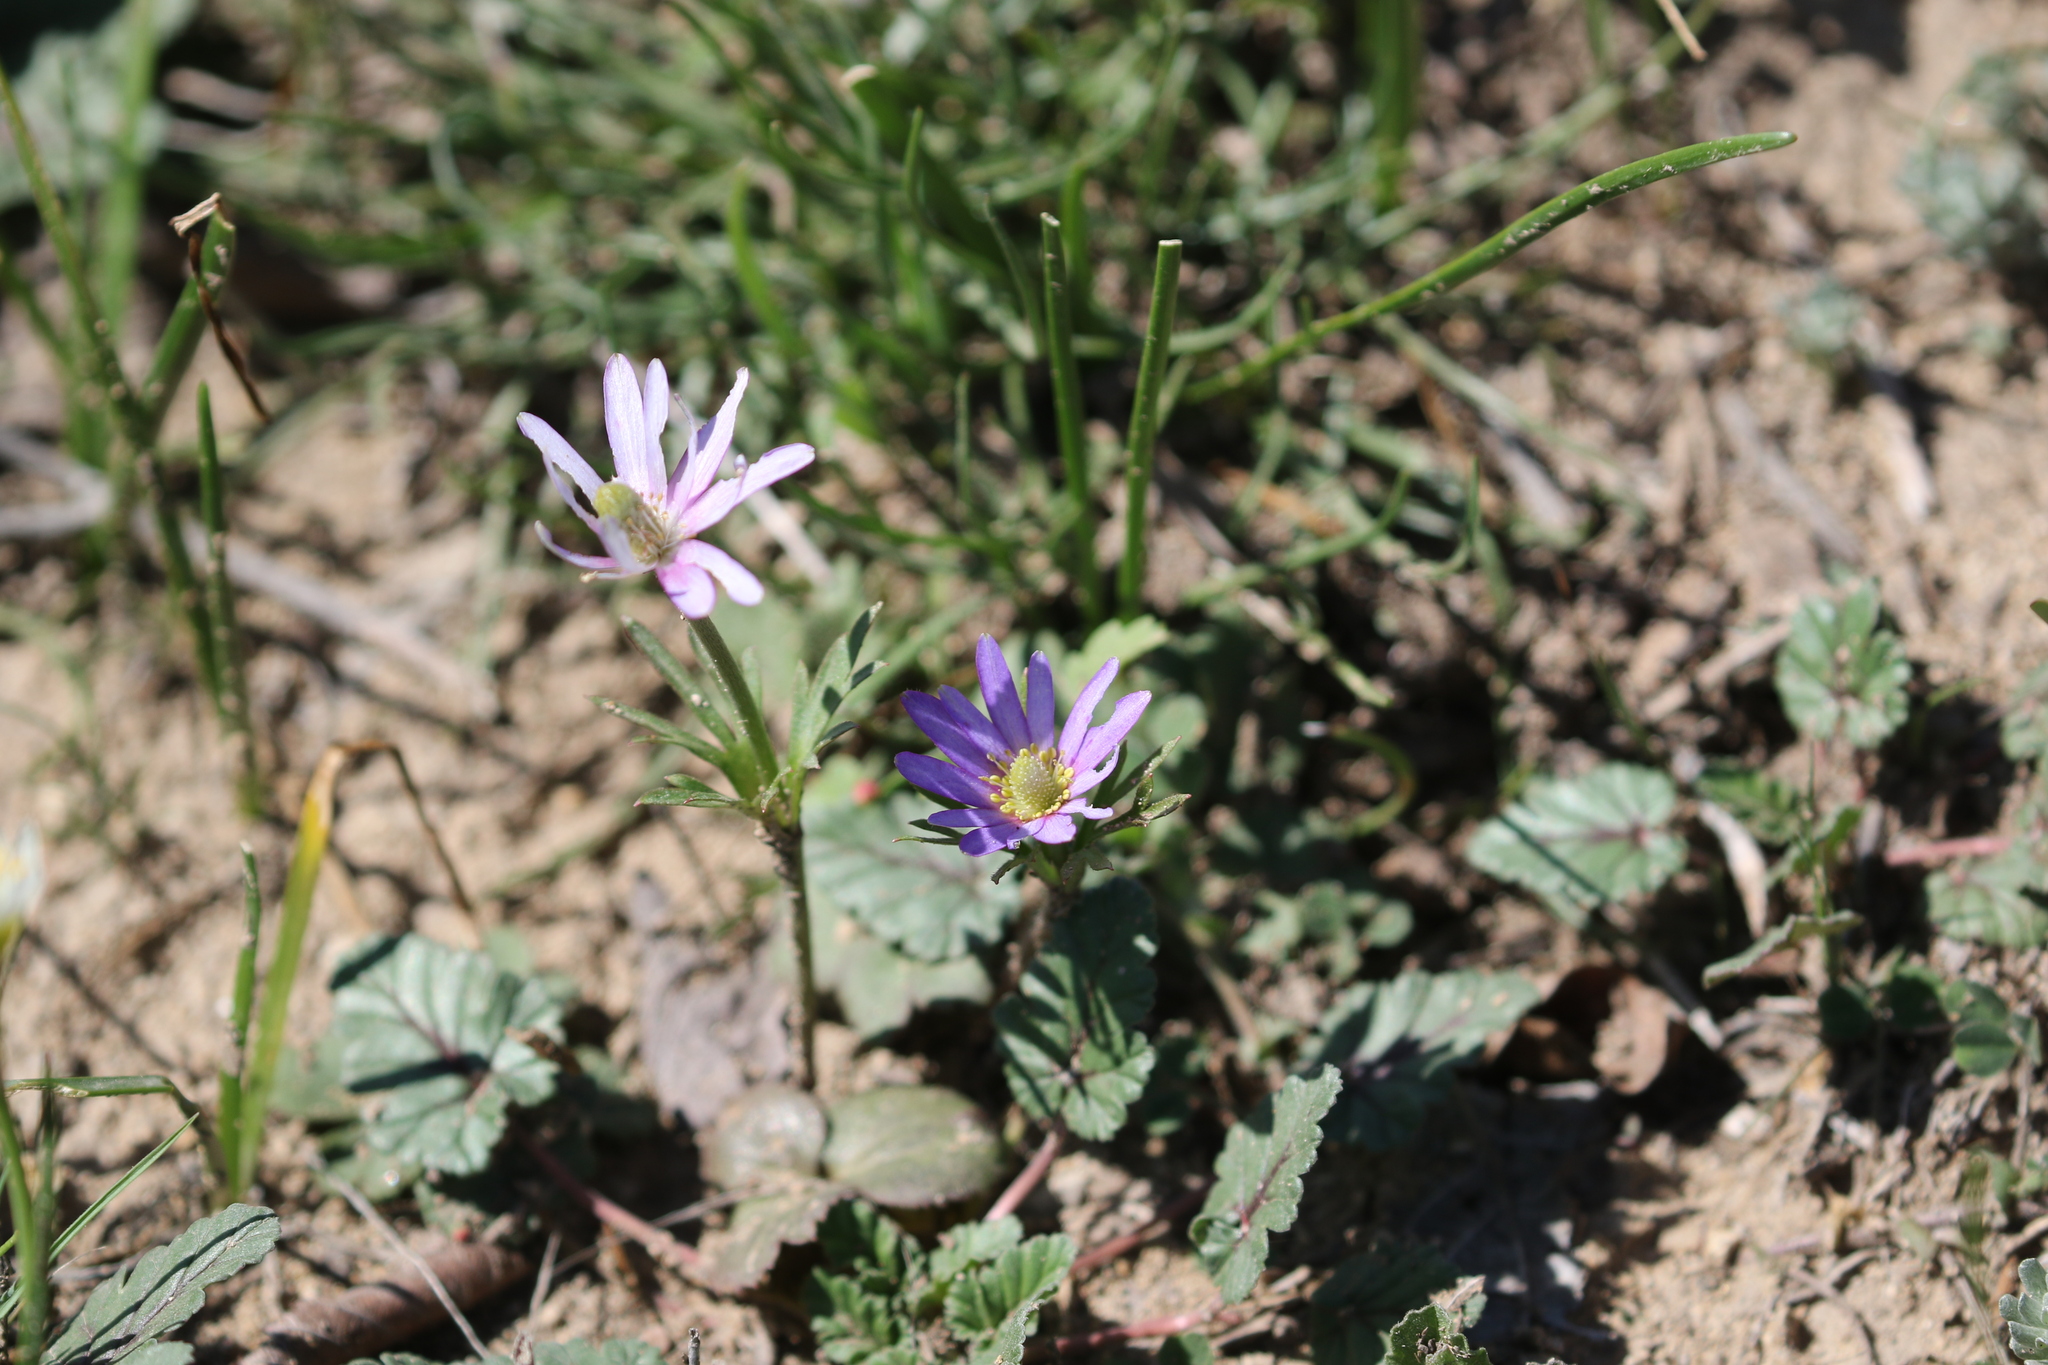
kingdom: Plantae
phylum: Tracheophyta
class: Magnoliopsida
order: Ranunculales
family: Ranunculaceae
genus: Anemone
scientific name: Anemone berlandieri
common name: Ten-petal anemone
